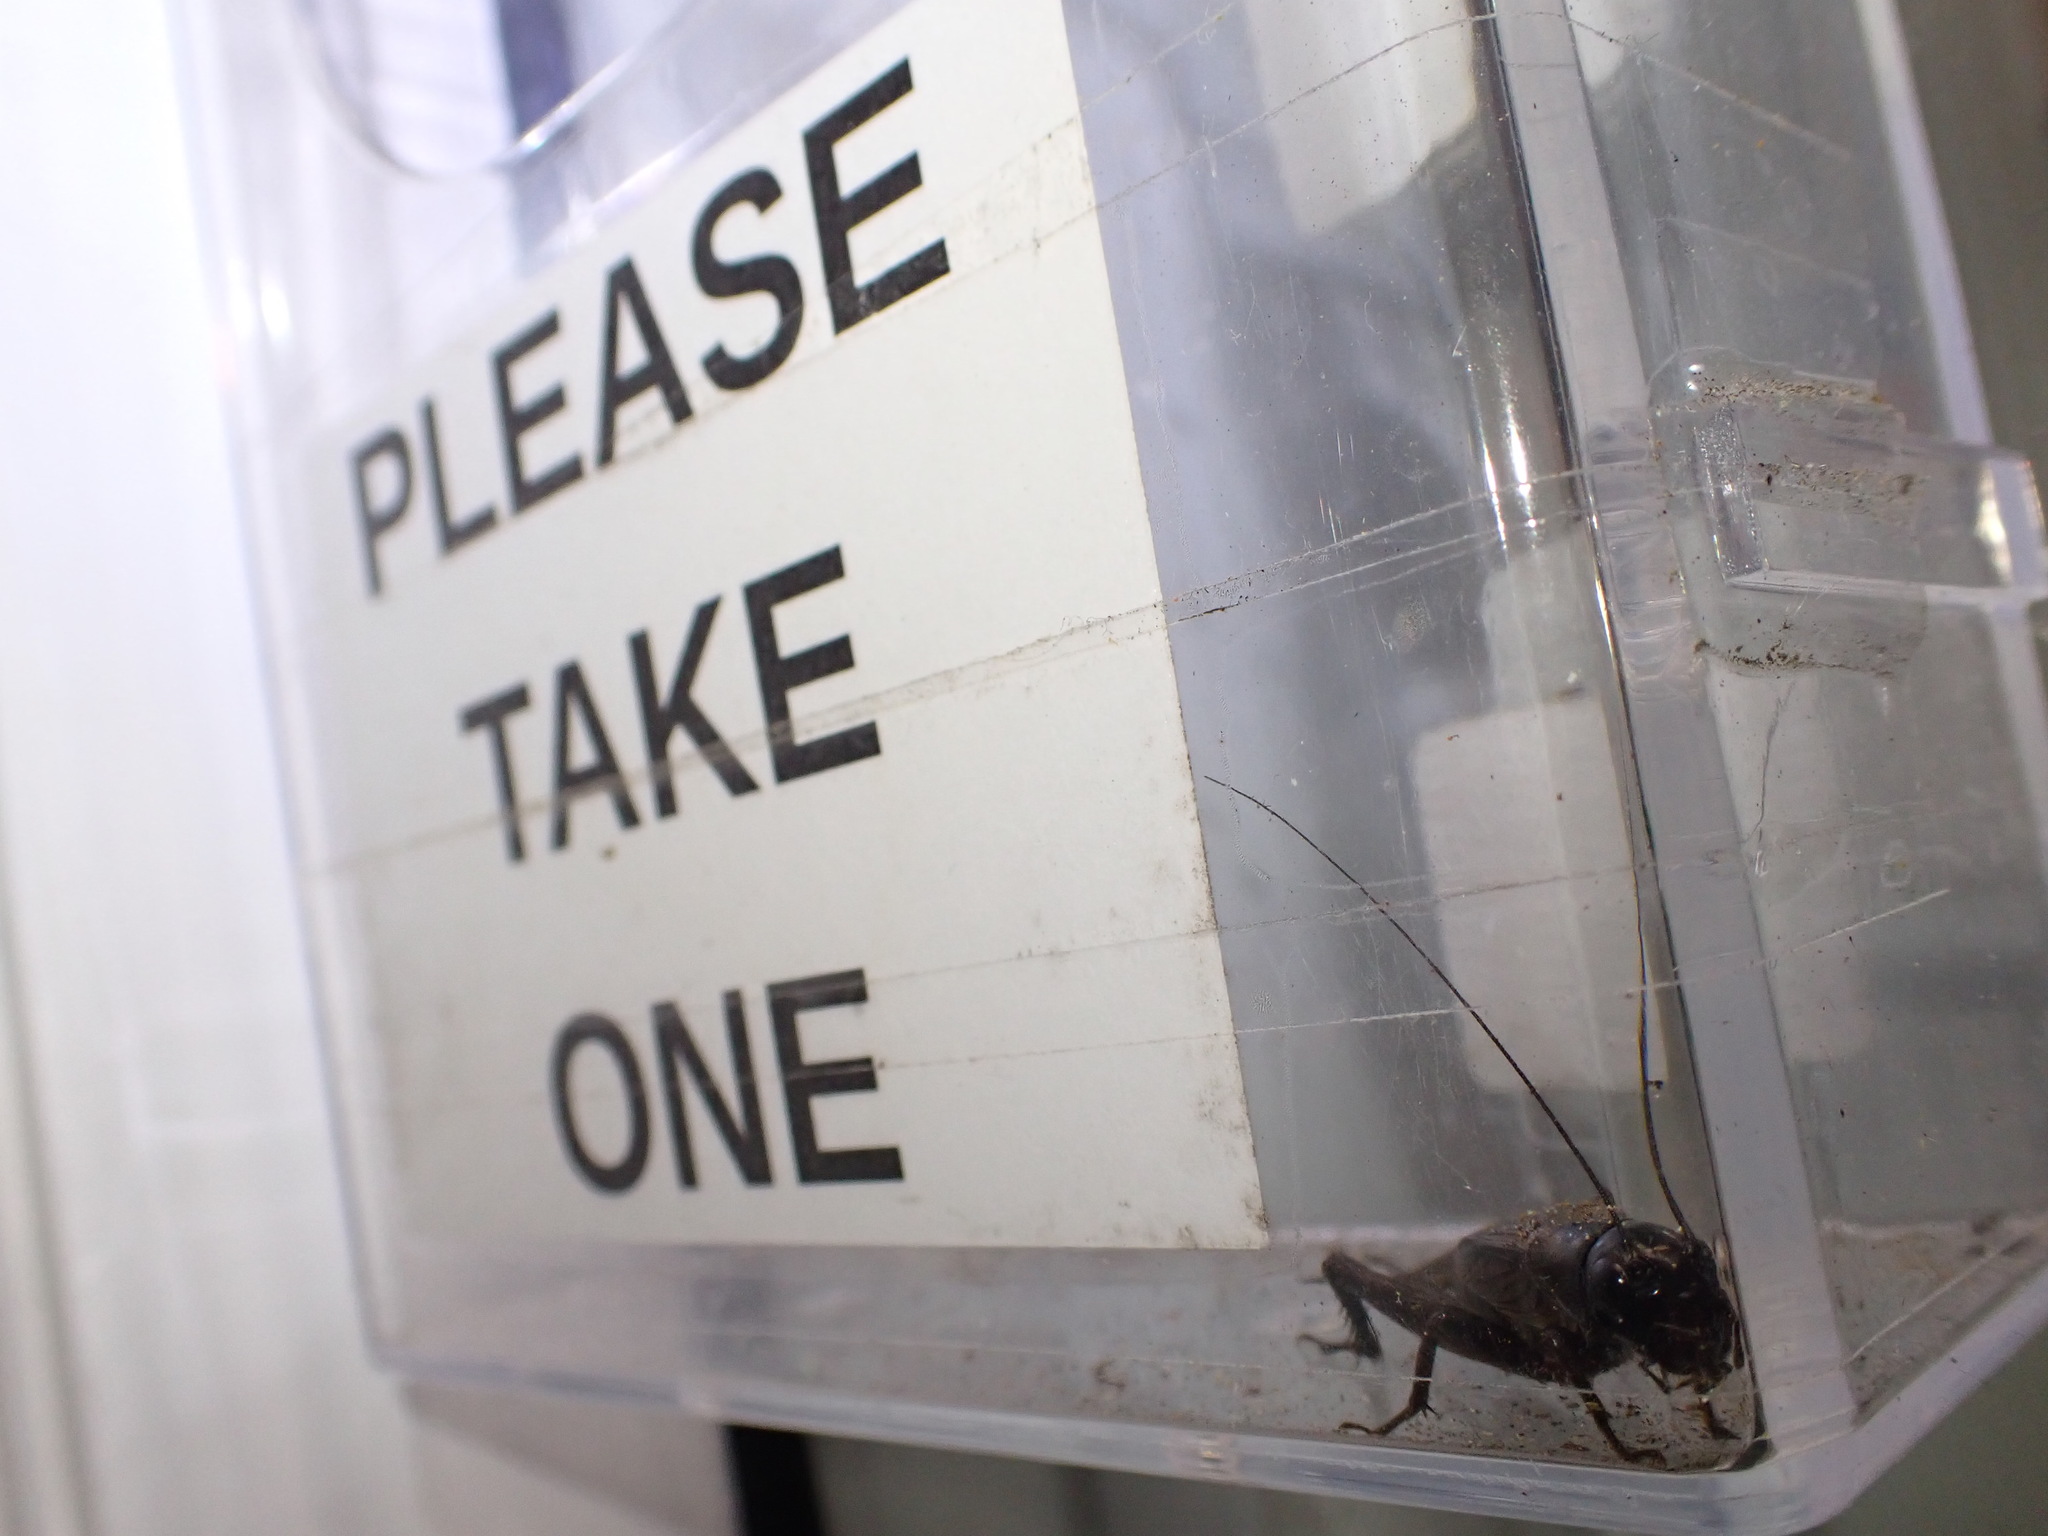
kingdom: Animalia
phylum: Arthropoda
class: Insecta
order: Orthoptera
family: Gryllidae
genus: Teleogryllus
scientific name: Teleogryllus commodus
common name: Black field cricket
